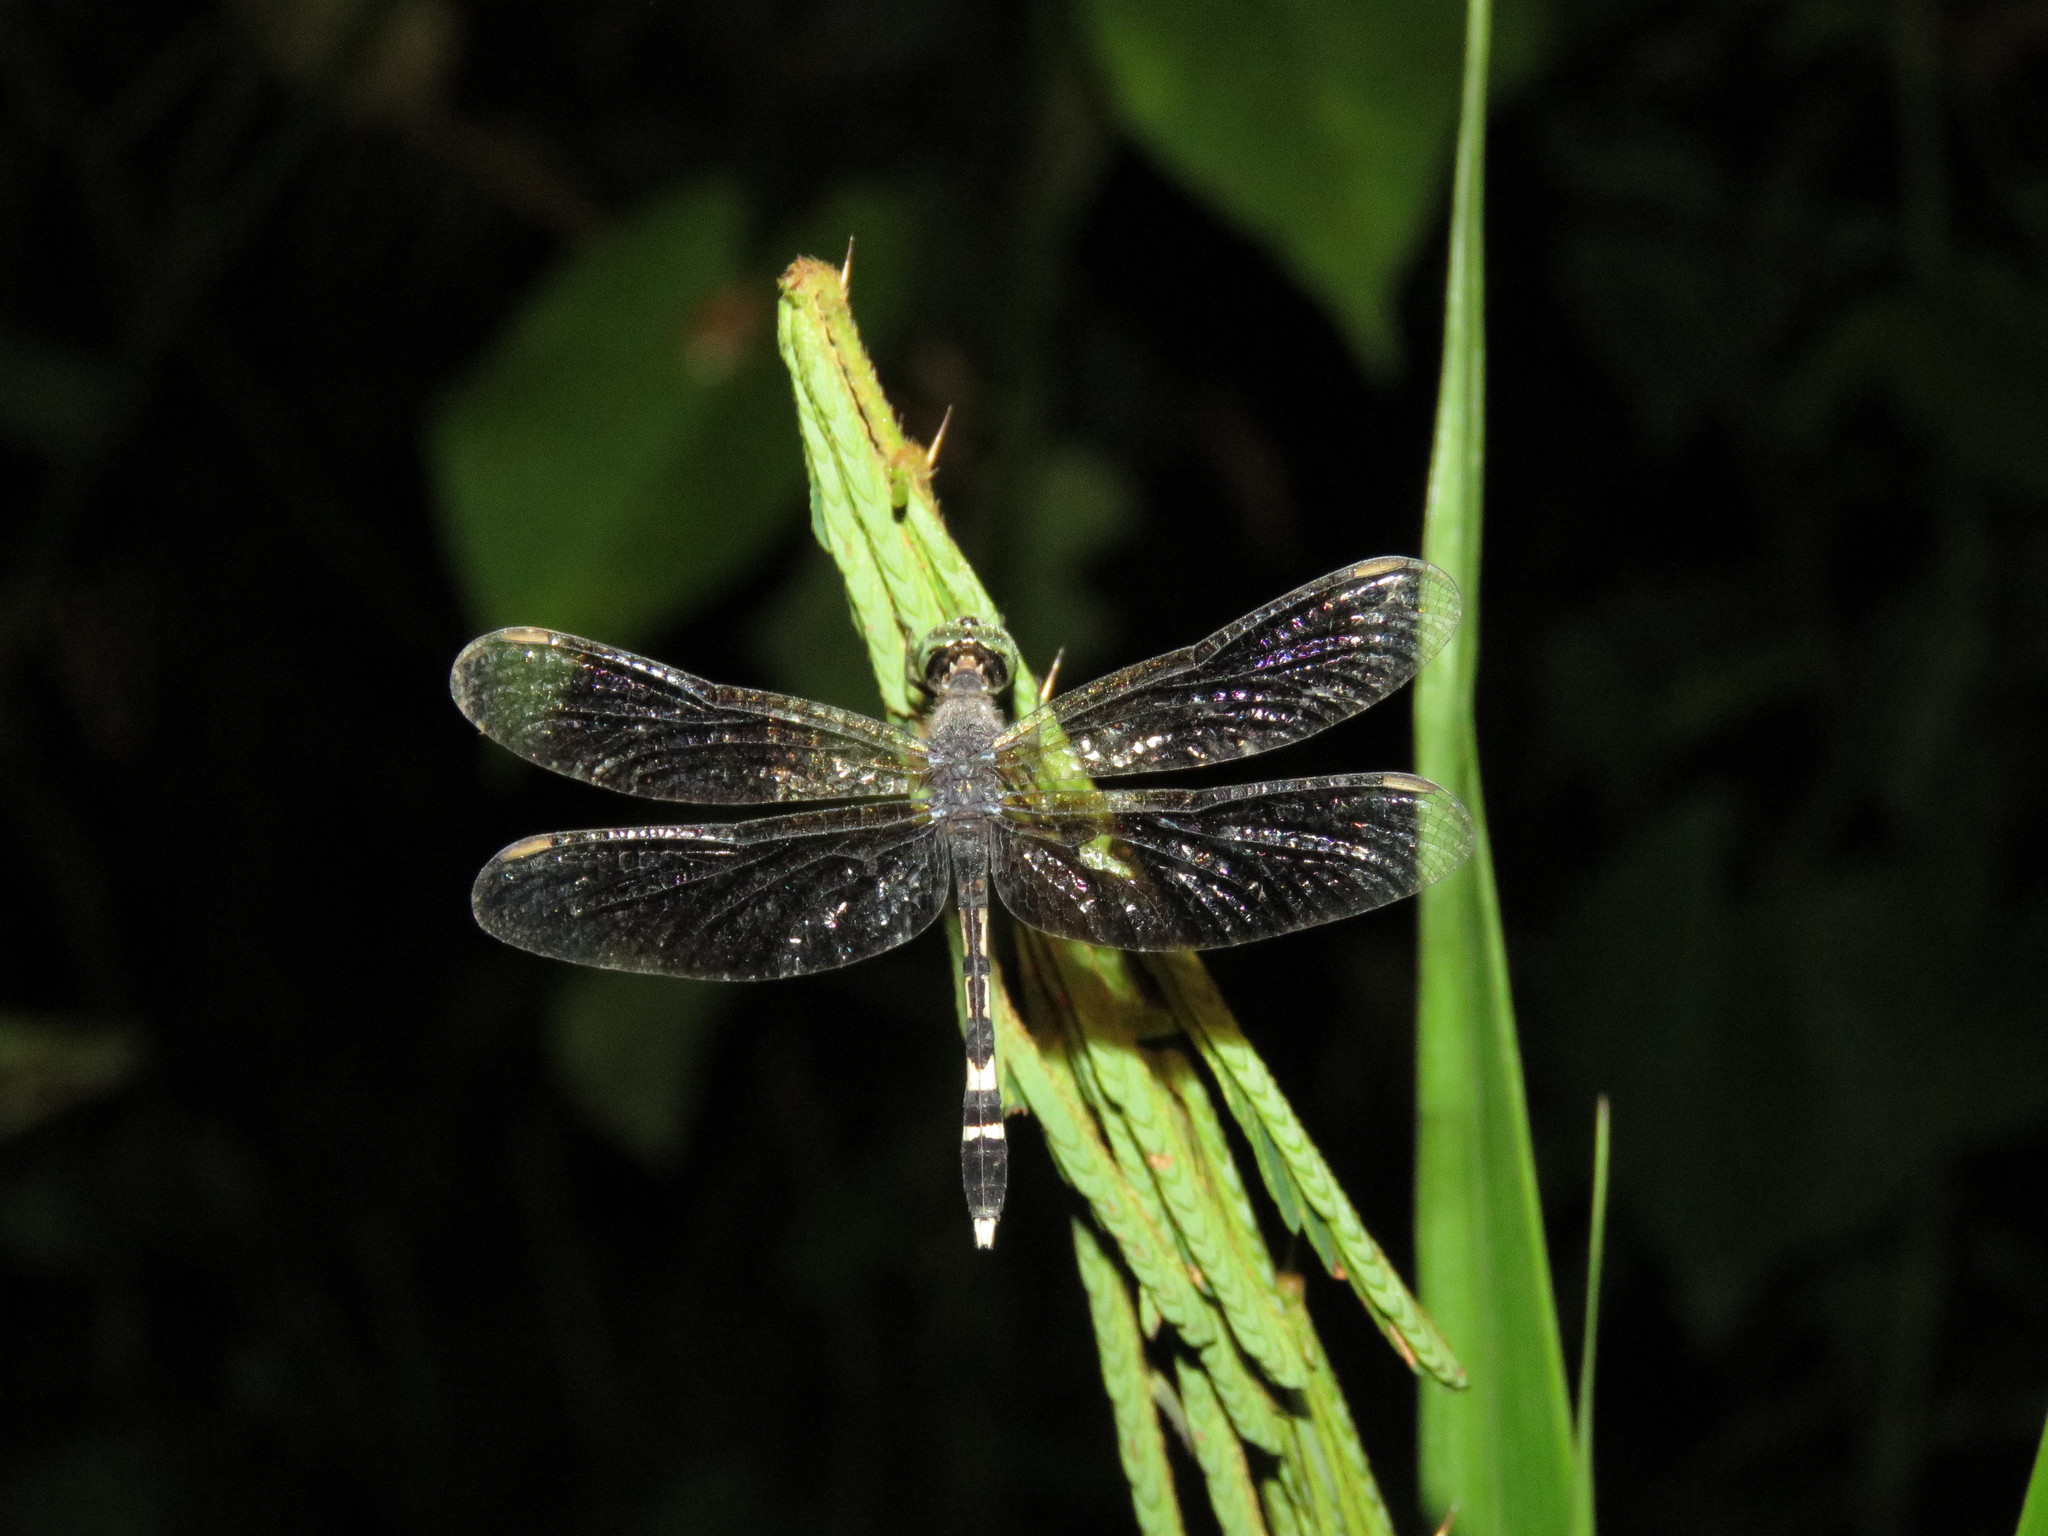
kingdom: Animalia
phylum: Arthropoda
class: Insecta
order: Odonata
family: Libellulidae
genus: Erythrodiplax
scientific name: Erythrodiplax attenuata
